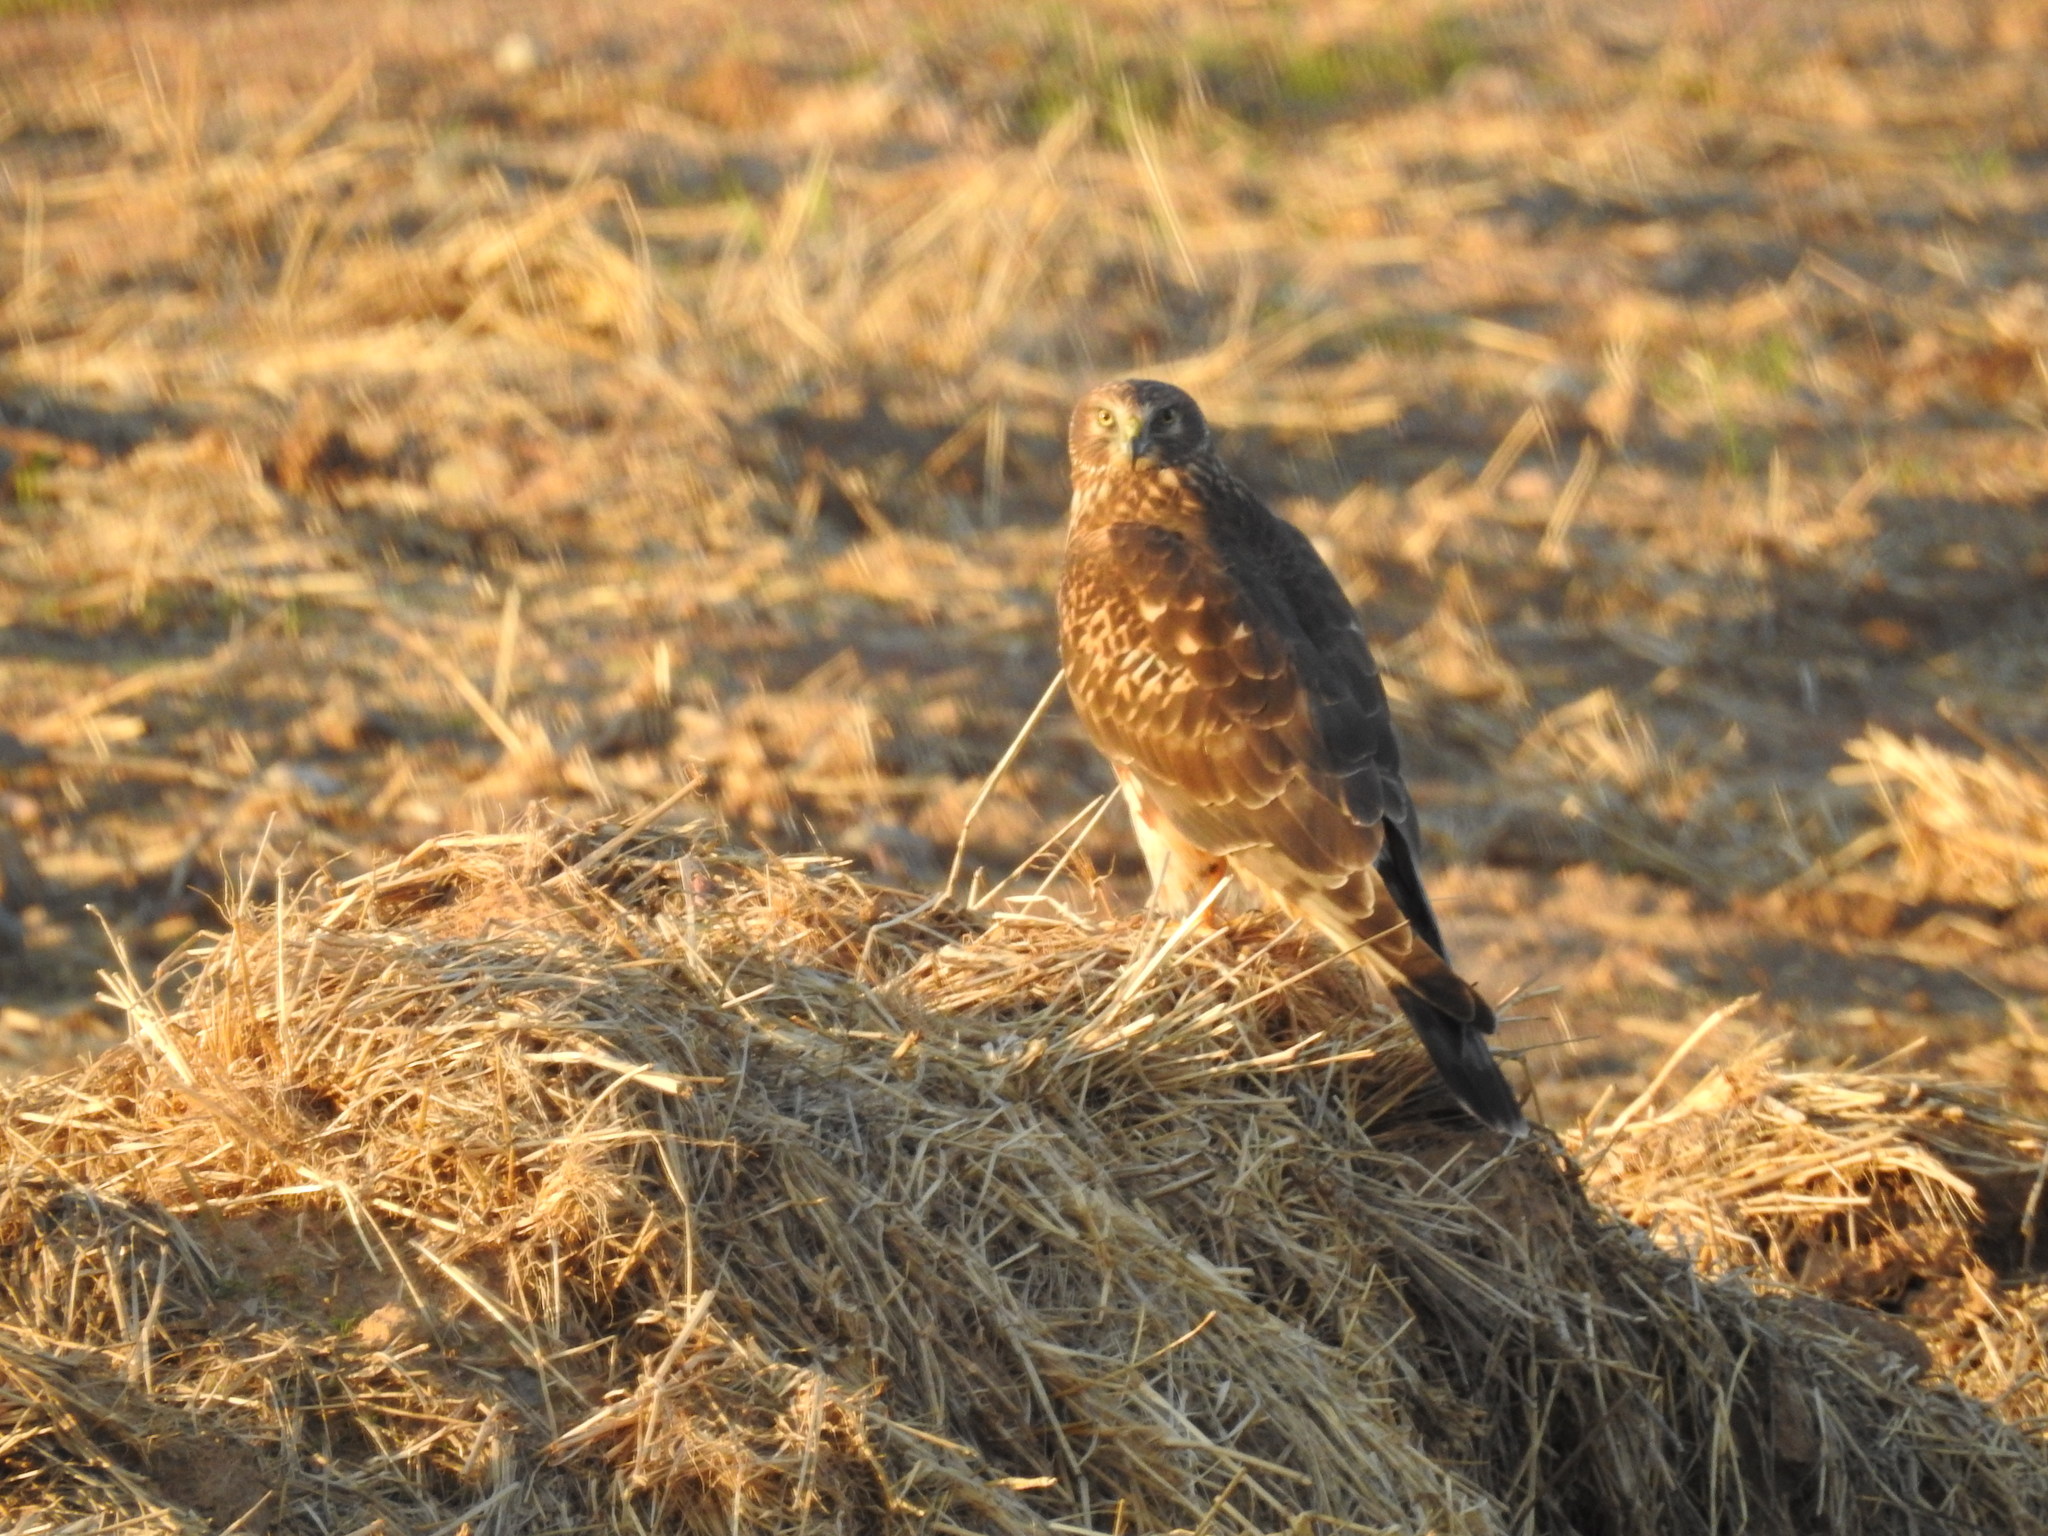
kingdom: Animalia
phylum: Chordata
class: Aves
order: Accipitriformes
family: Accipitridae
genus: Circus
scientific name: Circus cyaneus
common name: Hen harrier
